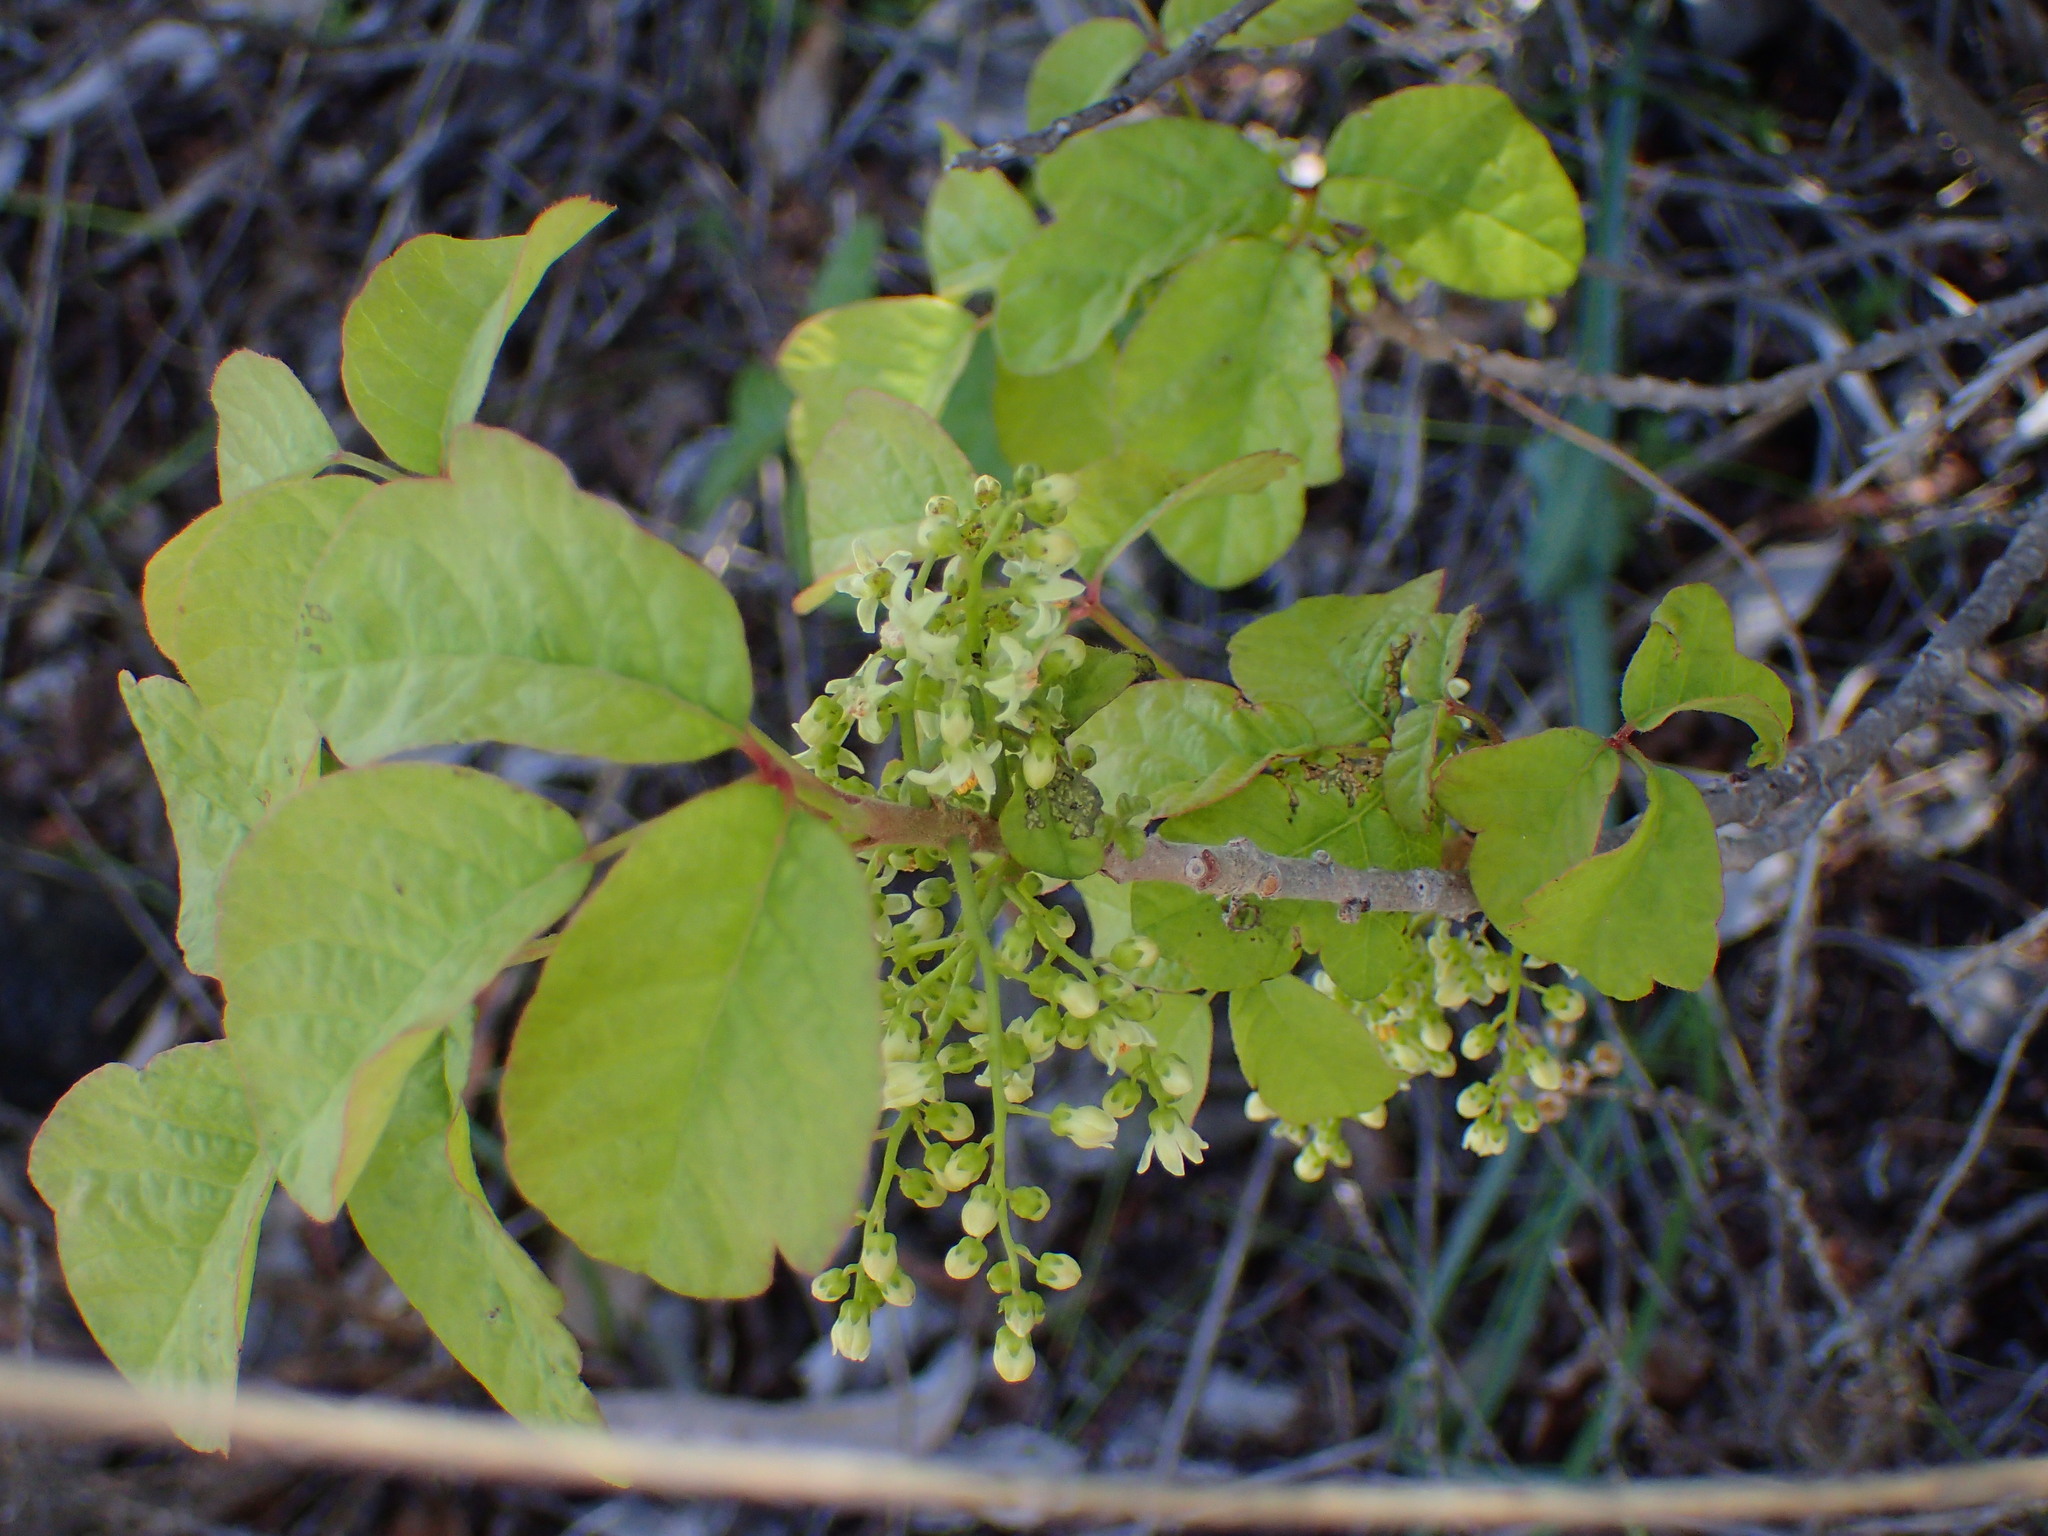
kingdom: Plantae
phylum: Tracheophyta
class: Magnoliopsida
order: Sapindales
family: Anacardiaceae
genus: Toxicodendron
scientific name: Toxicodendron diversilobum
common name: Pacific poison-oak
